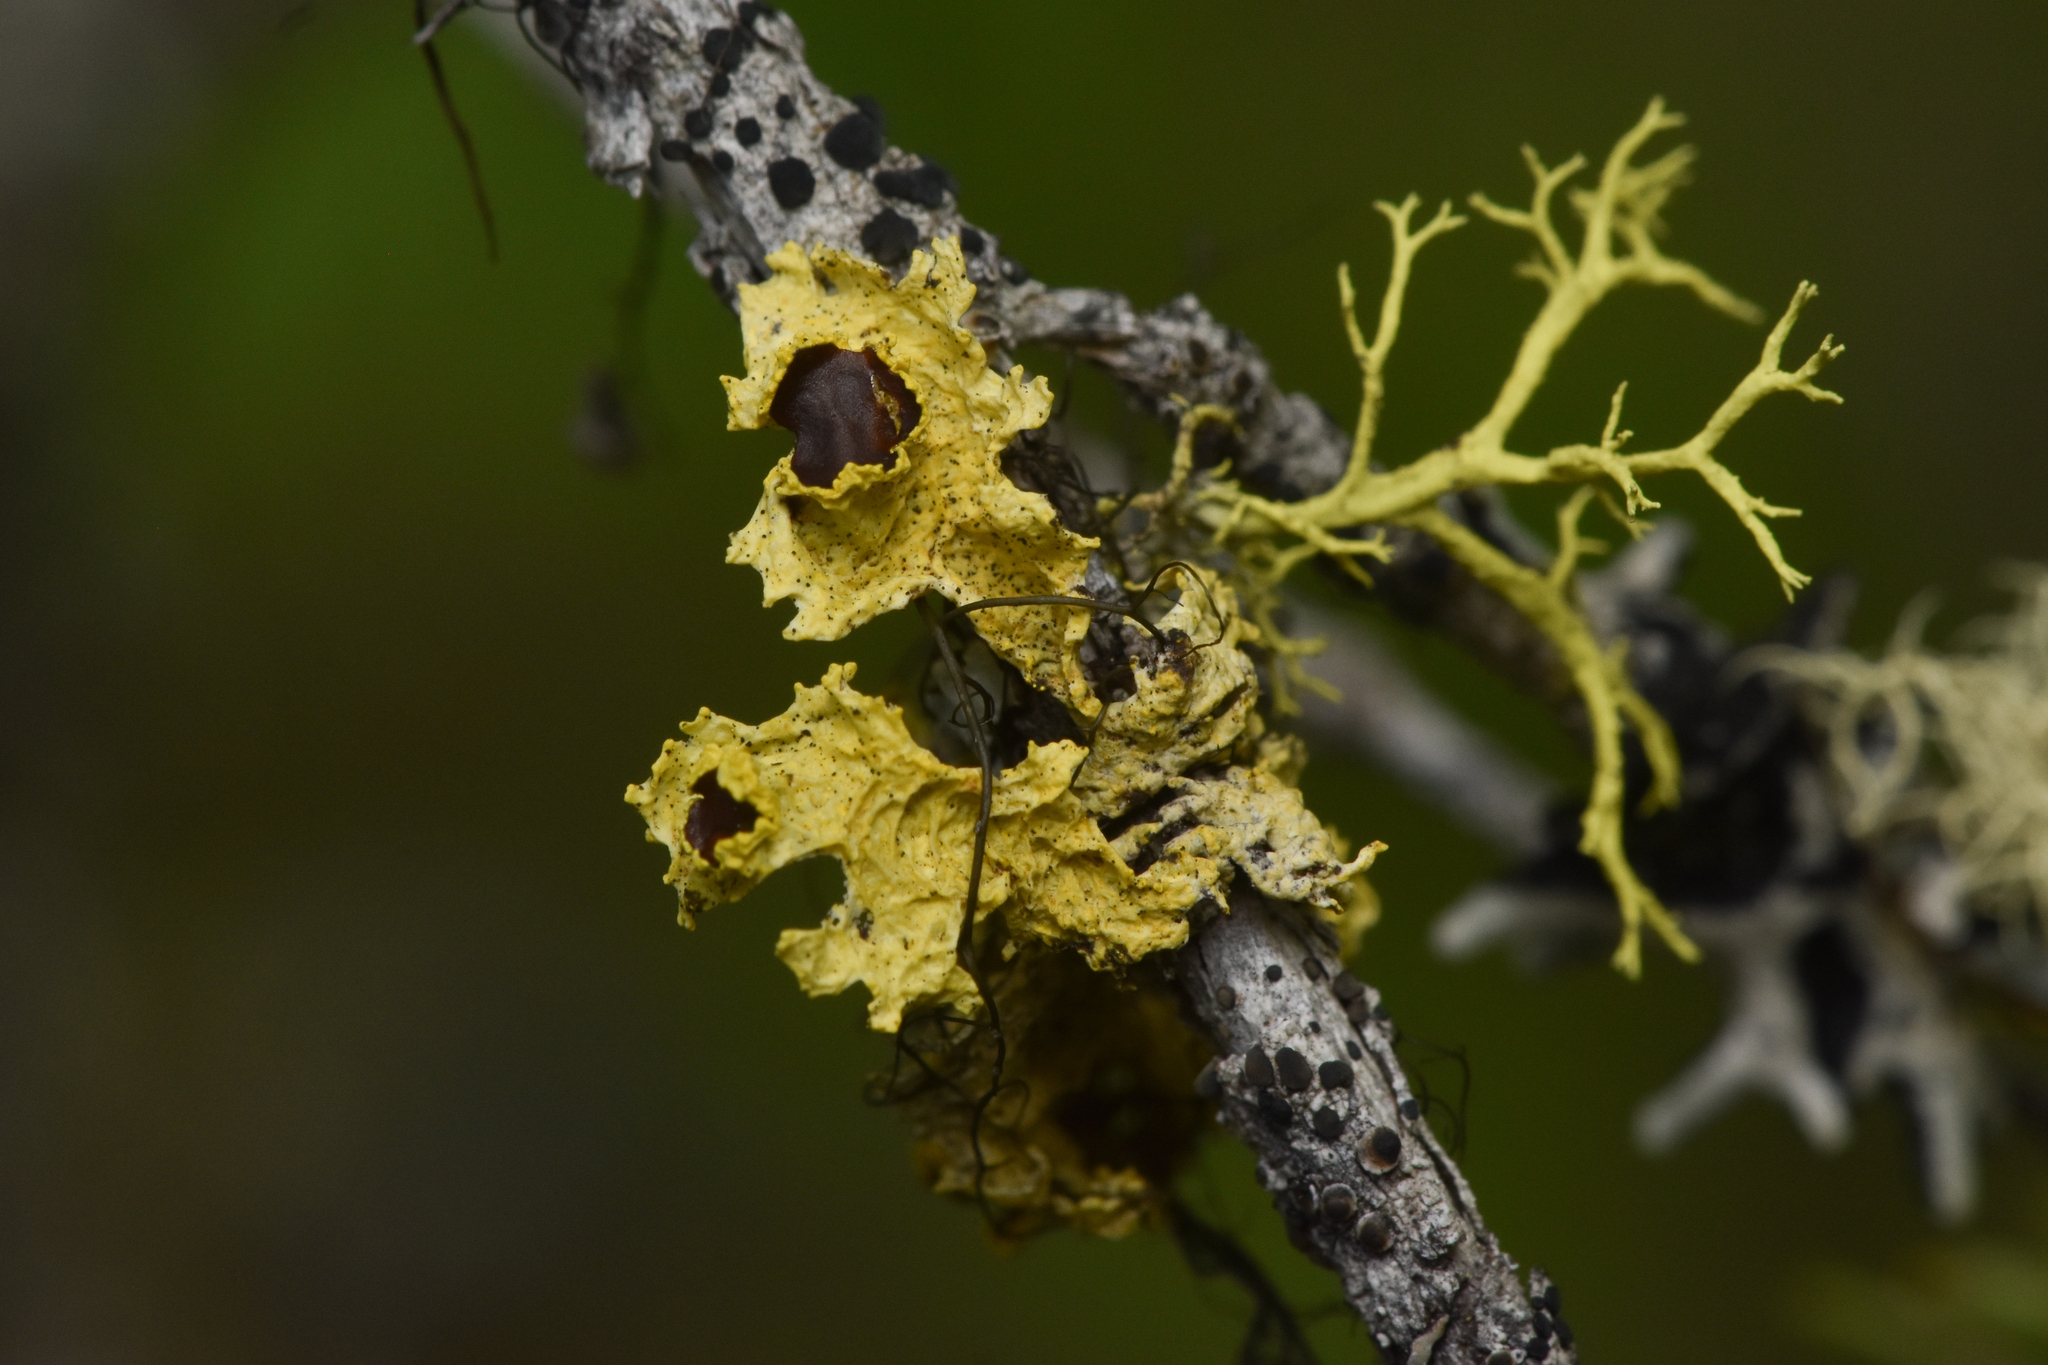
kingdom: Fungi
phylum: Ascomycota
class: Lecanoromycetes
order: Lecanorales
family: Parmeliaceae
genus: Vulpicida
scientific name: Vulpicida canadensis
